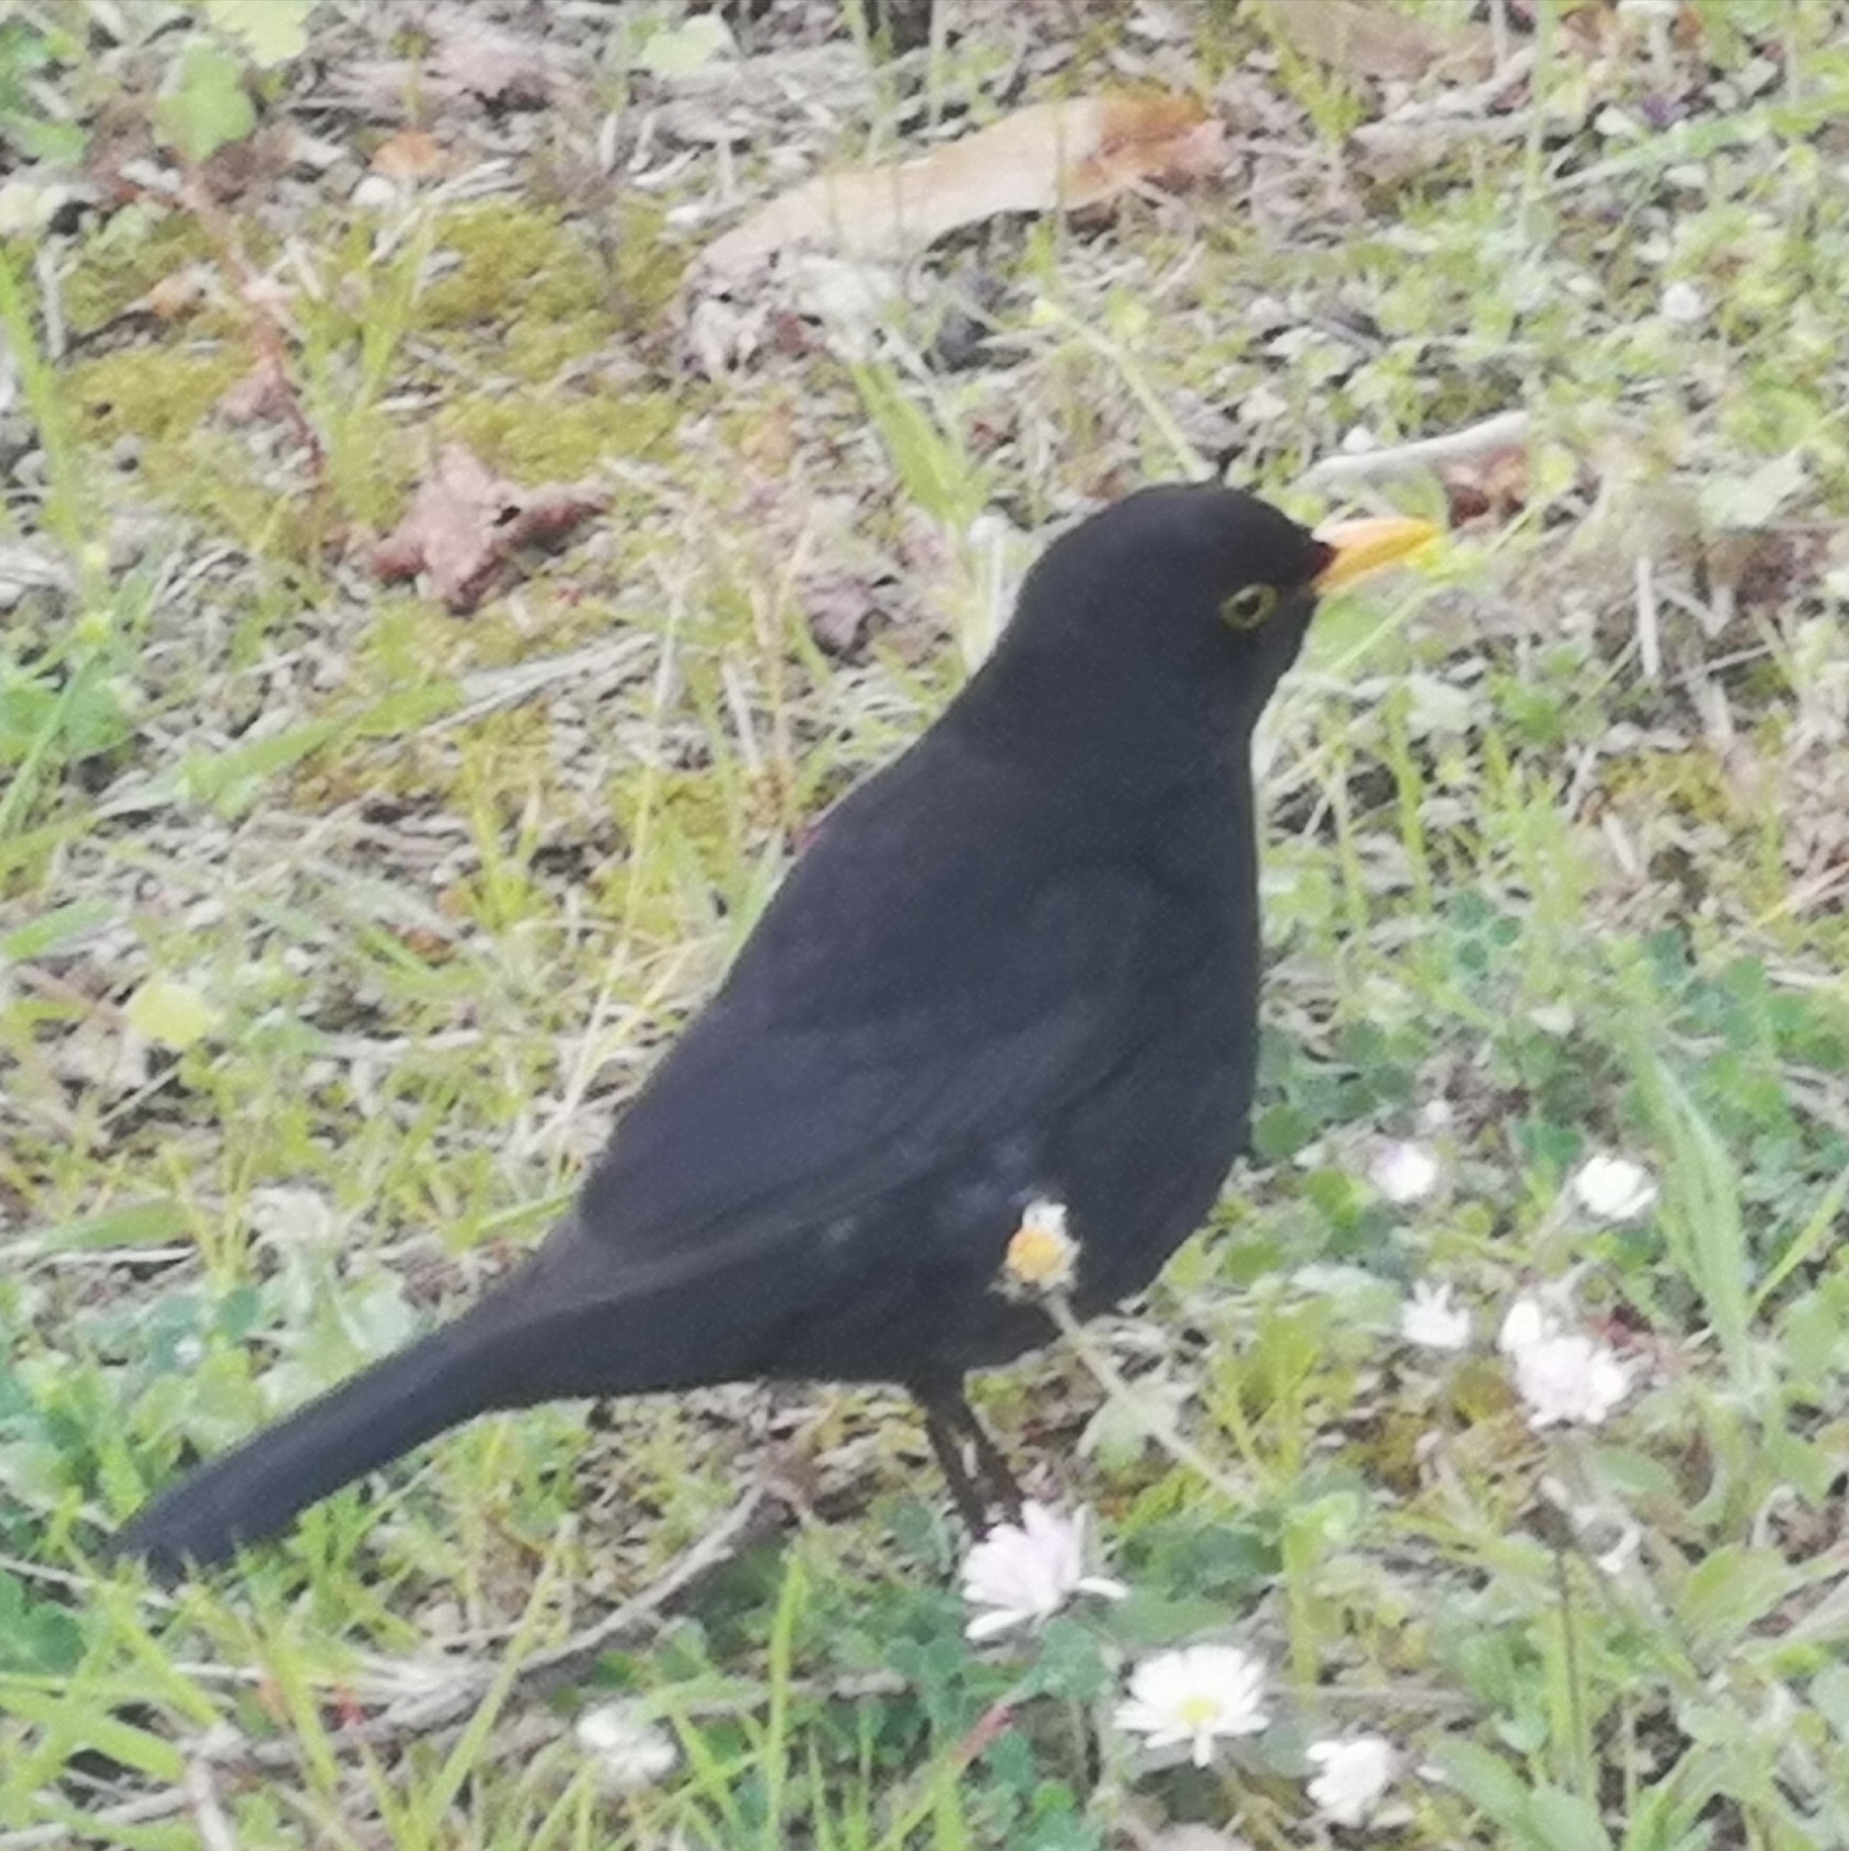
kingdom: Animalia
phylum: Chordata
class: Aves
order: Passeriformes
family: Turdidae
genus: Turdus
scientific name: Turdus merula
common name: Common blackbird
